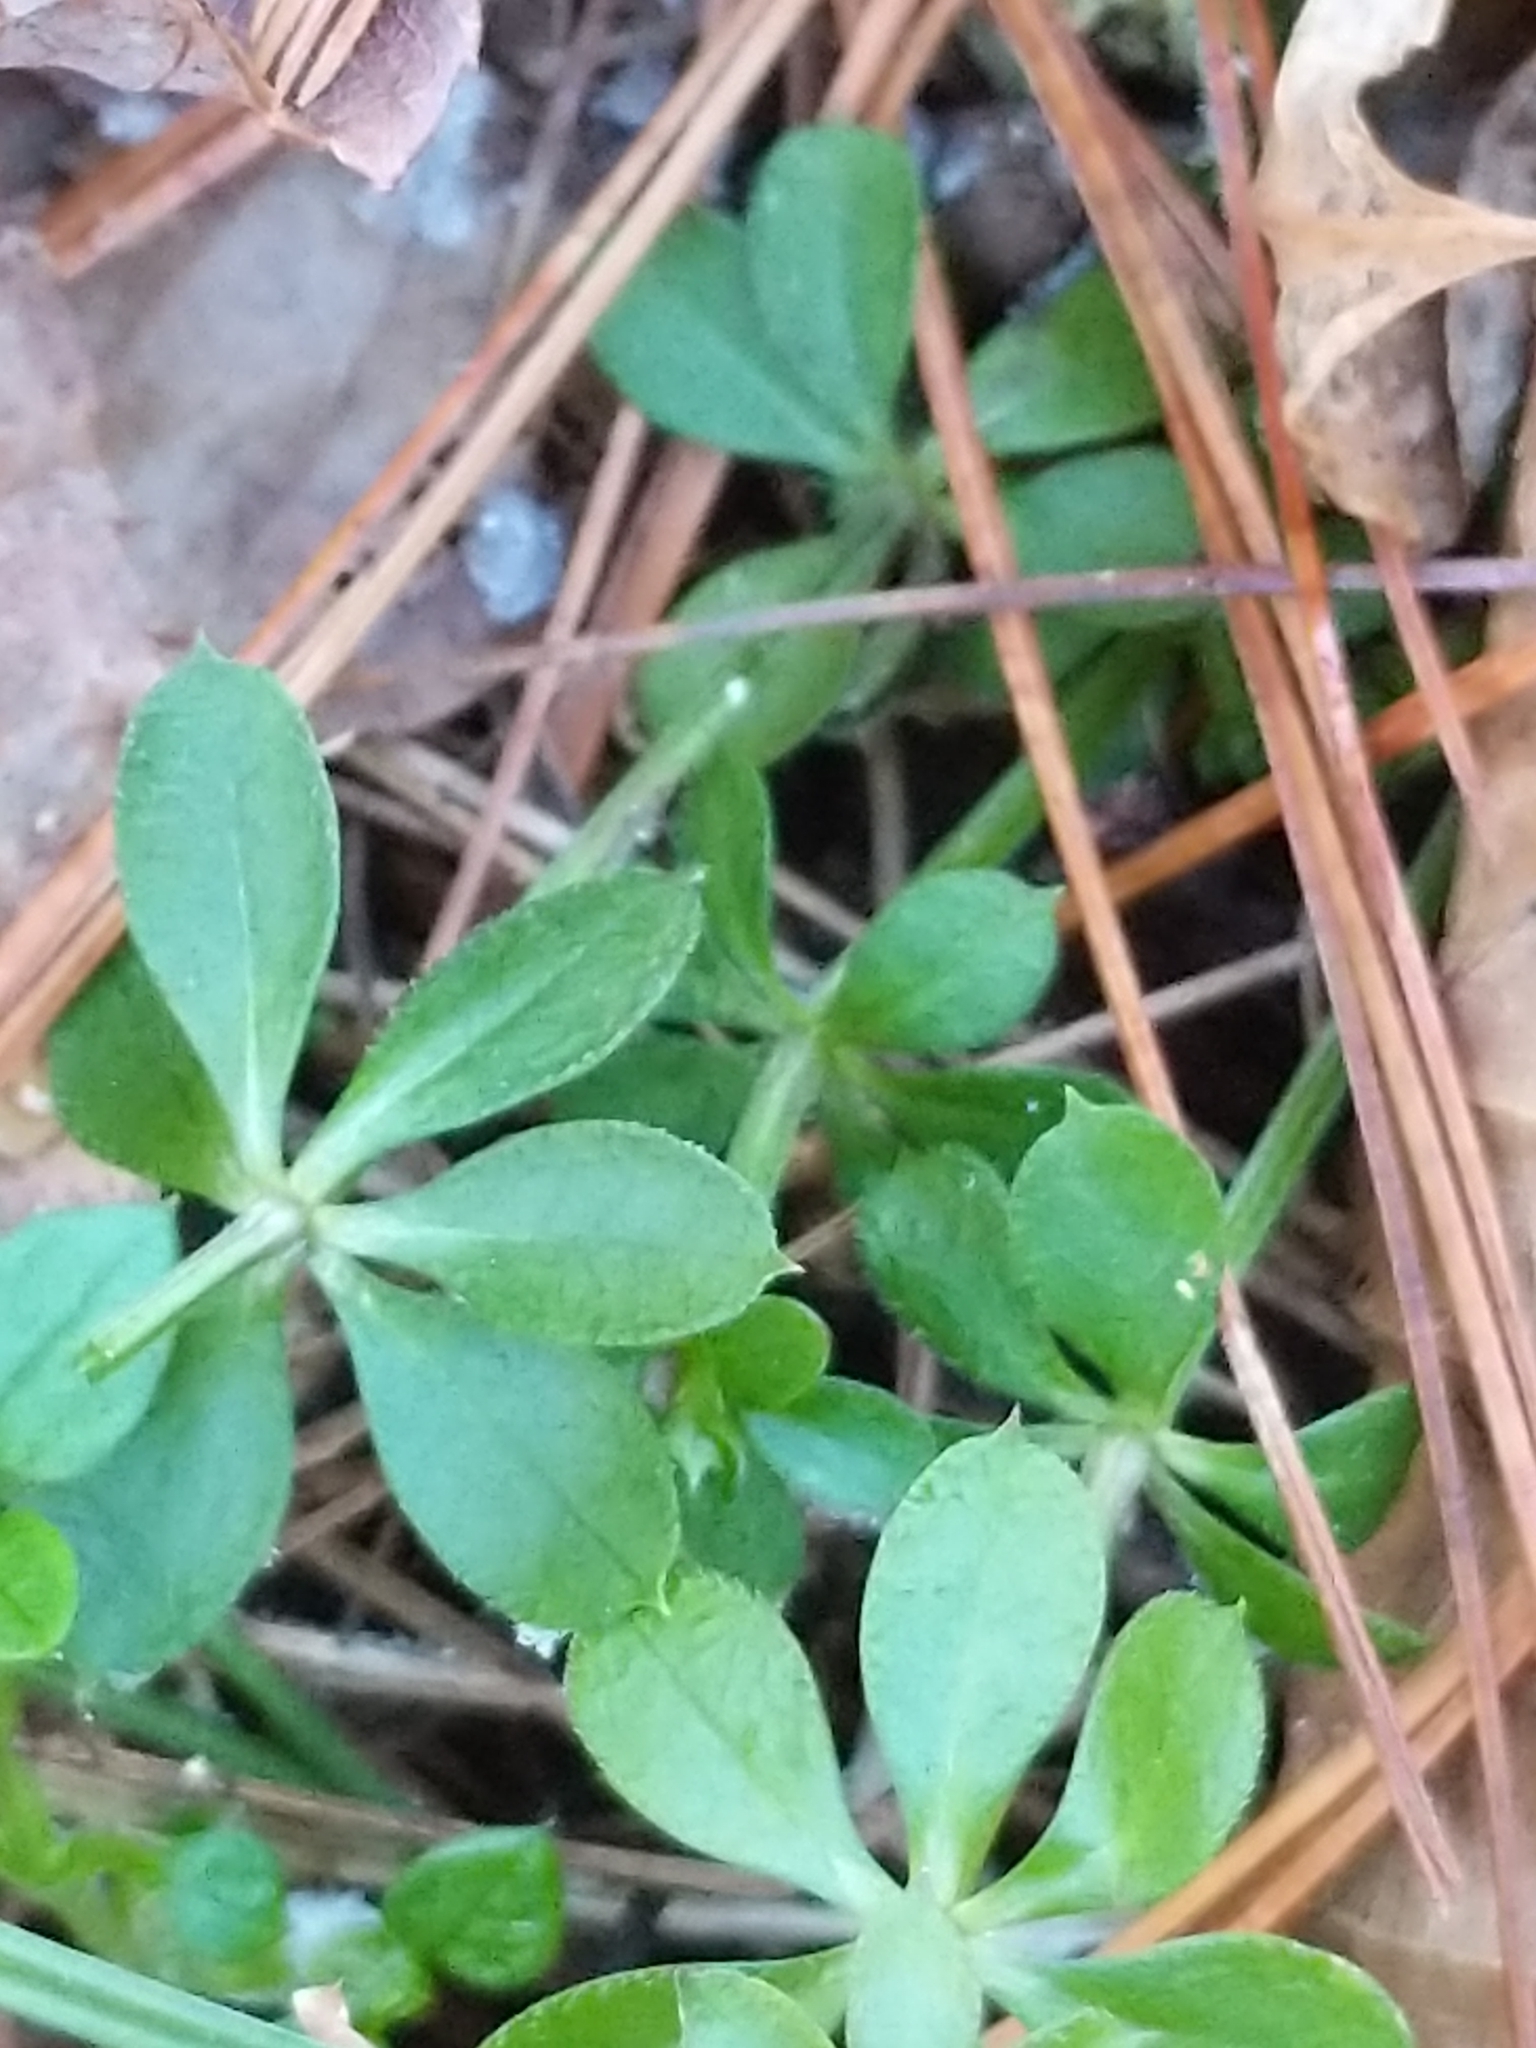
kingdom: Plantae
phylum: Tracheophyta
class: Magnoliopsida
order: Gentianales
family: Rubiaceae
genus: Galium
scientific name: Galium triflorum
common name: Fragrant bedstraw
